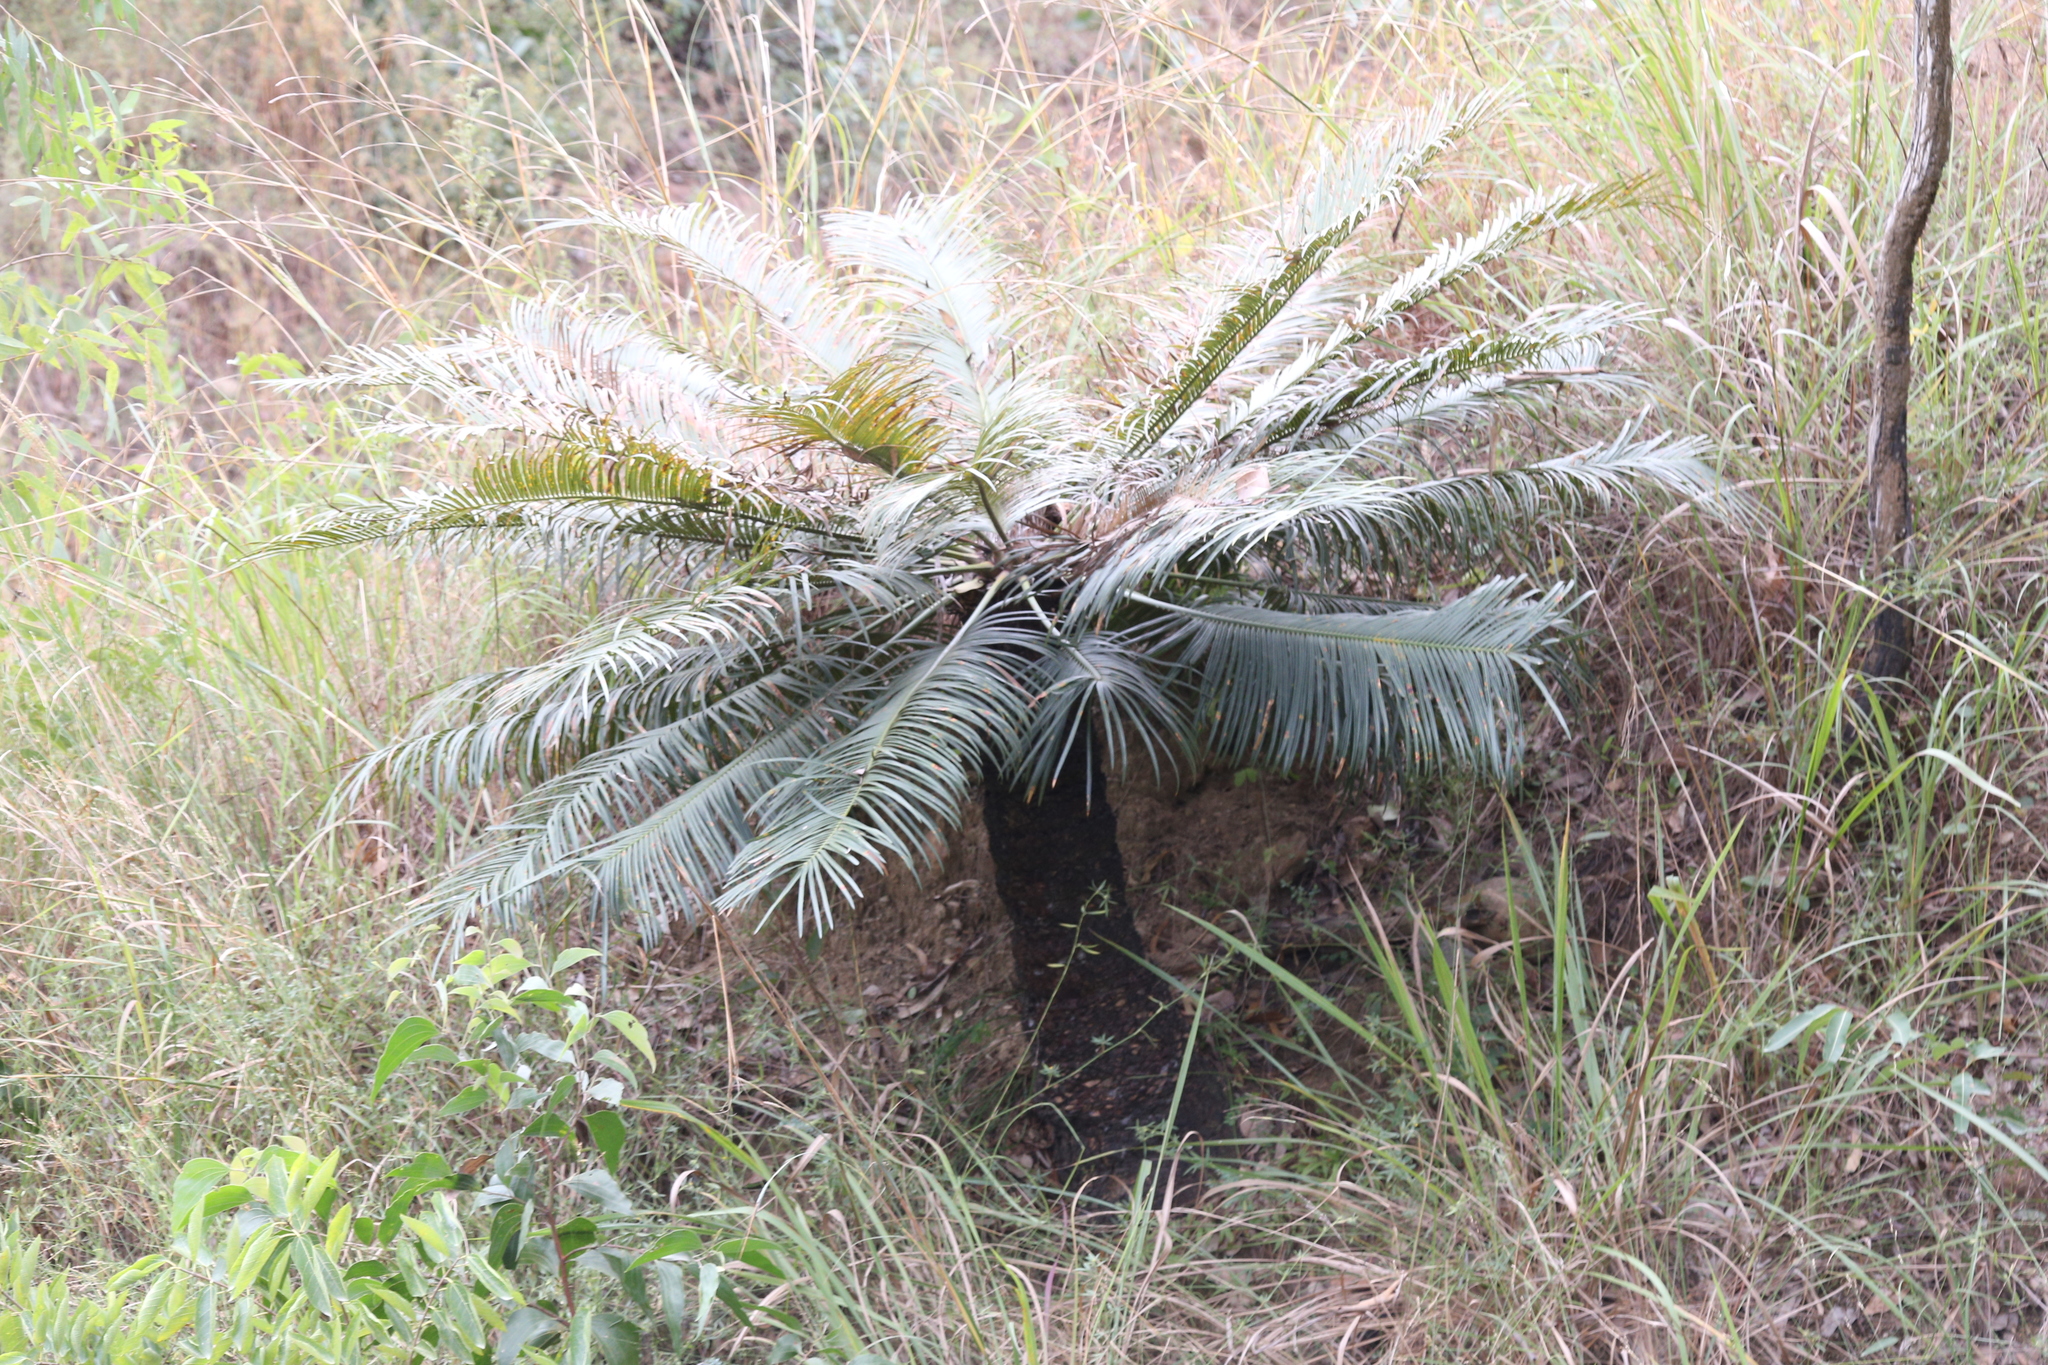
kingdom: Plantae
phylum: Tracheophyta
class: Cycadopsida
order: Cycadales
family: Cycadaceae
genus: Cycas
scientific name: Cycas media
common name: Queensland cycas
